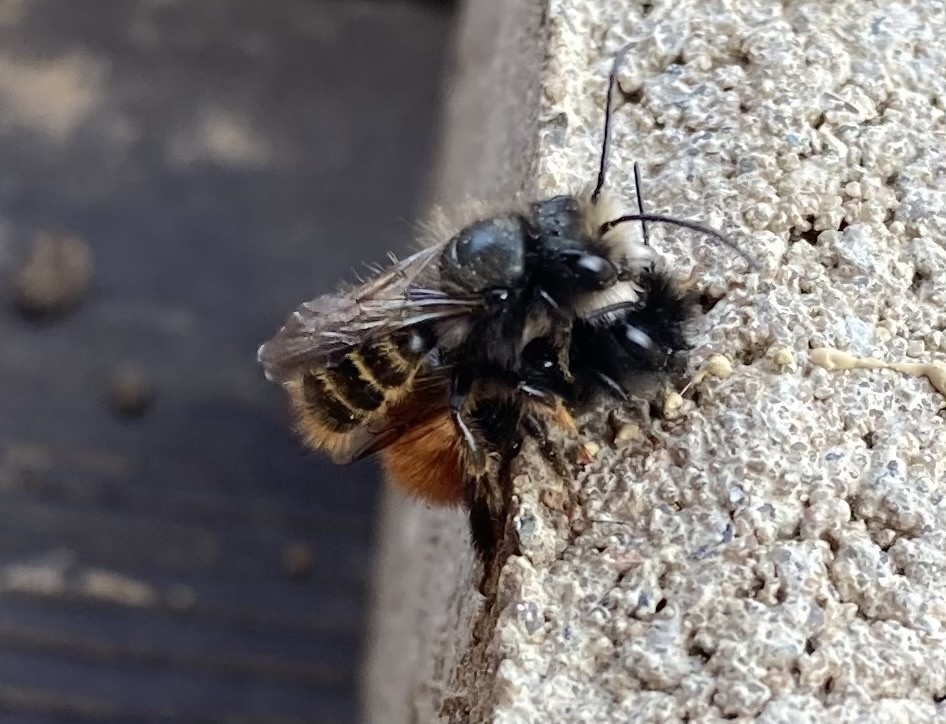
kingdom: Animalia
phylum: Arthropoda
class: Insecta
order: Hymenoptera
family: Megachilidae
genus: Osmia
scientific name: Osmia cornuta
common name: Mason bee
